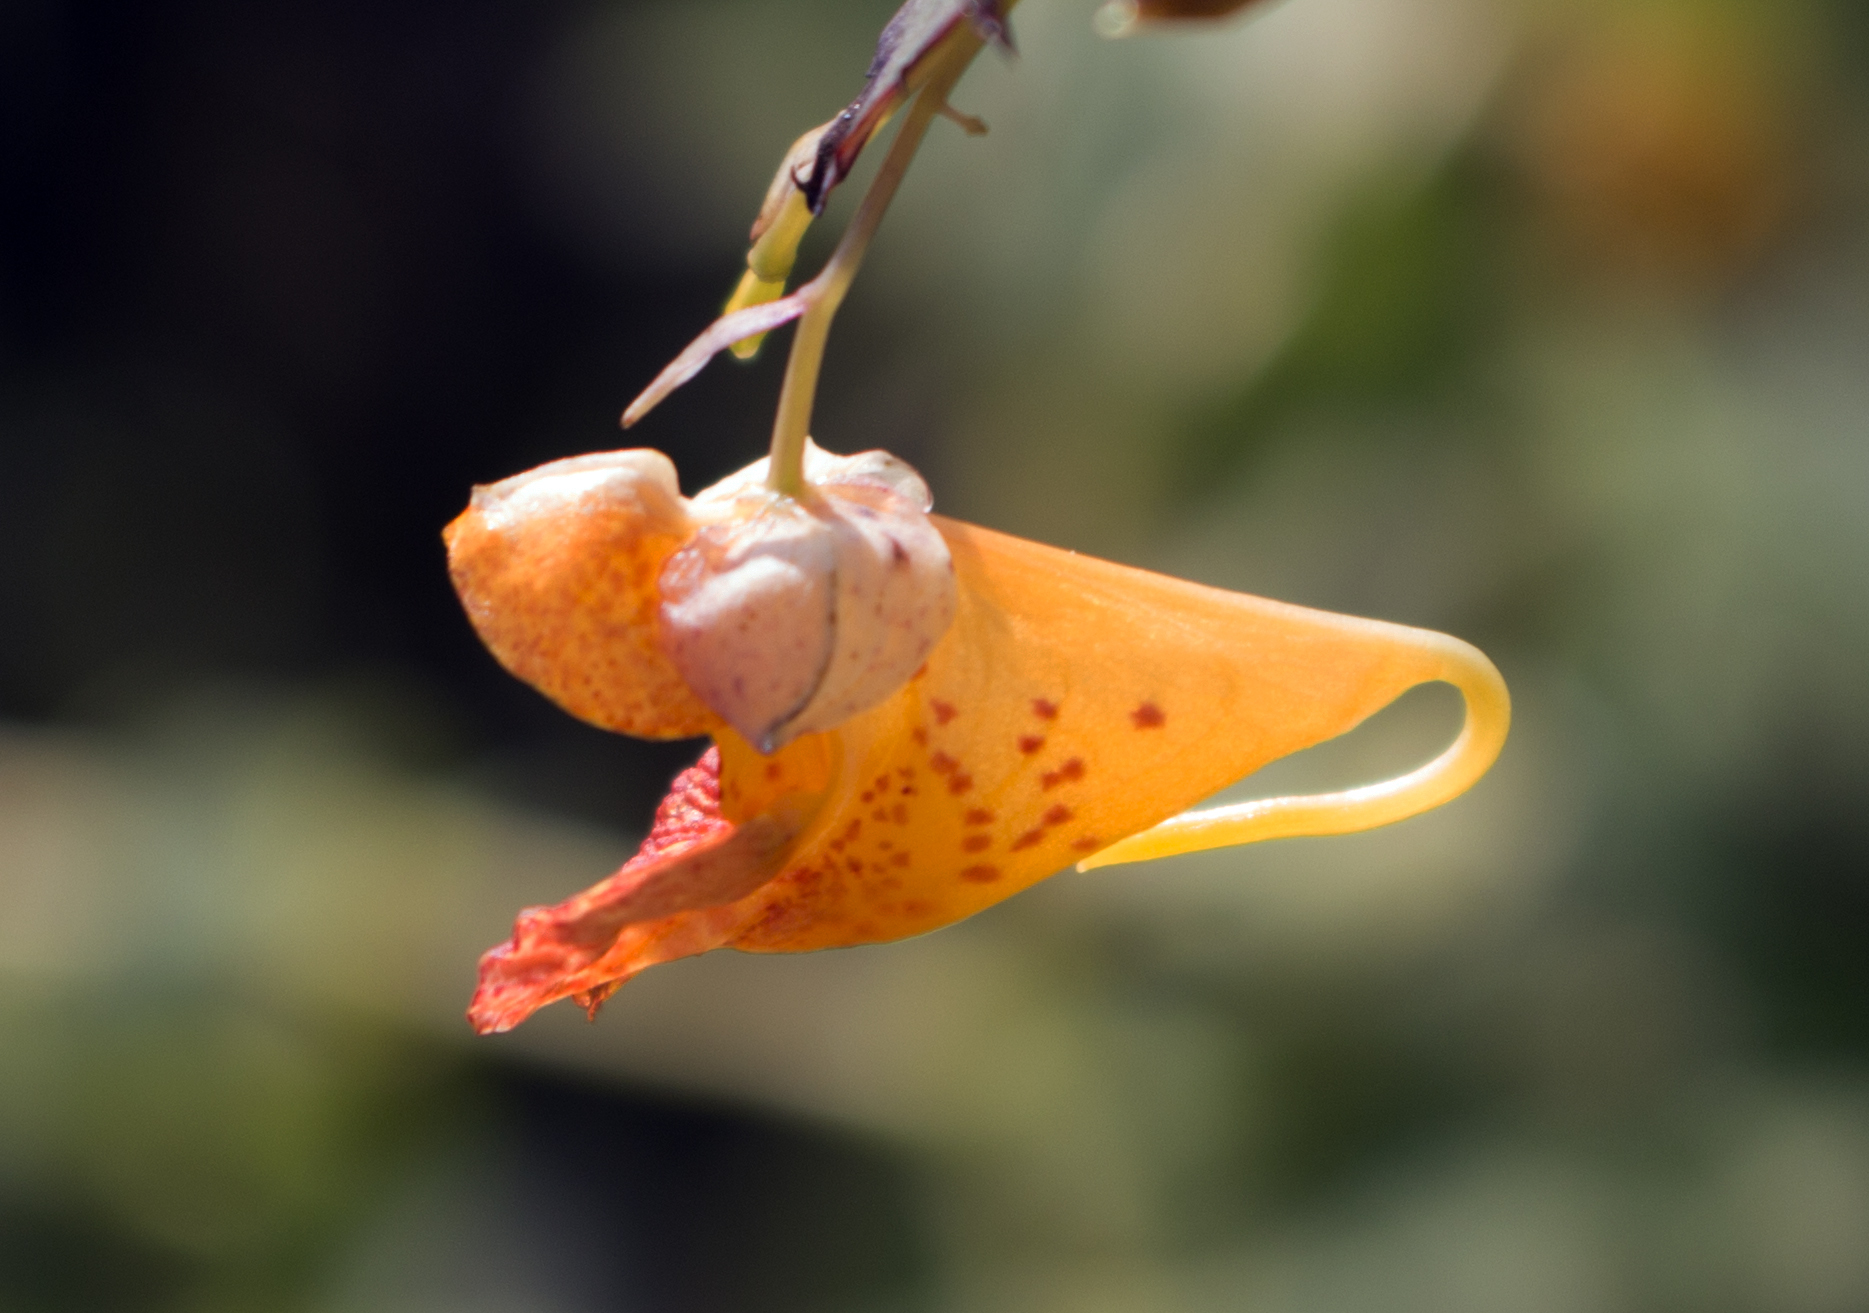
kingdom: Plantae
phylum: Tracheophyta
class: Magnoliopsida
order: Ericales
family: Balsaminaceae
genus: Impatiens
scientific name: Impatiens capensis
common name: Orange balsam
